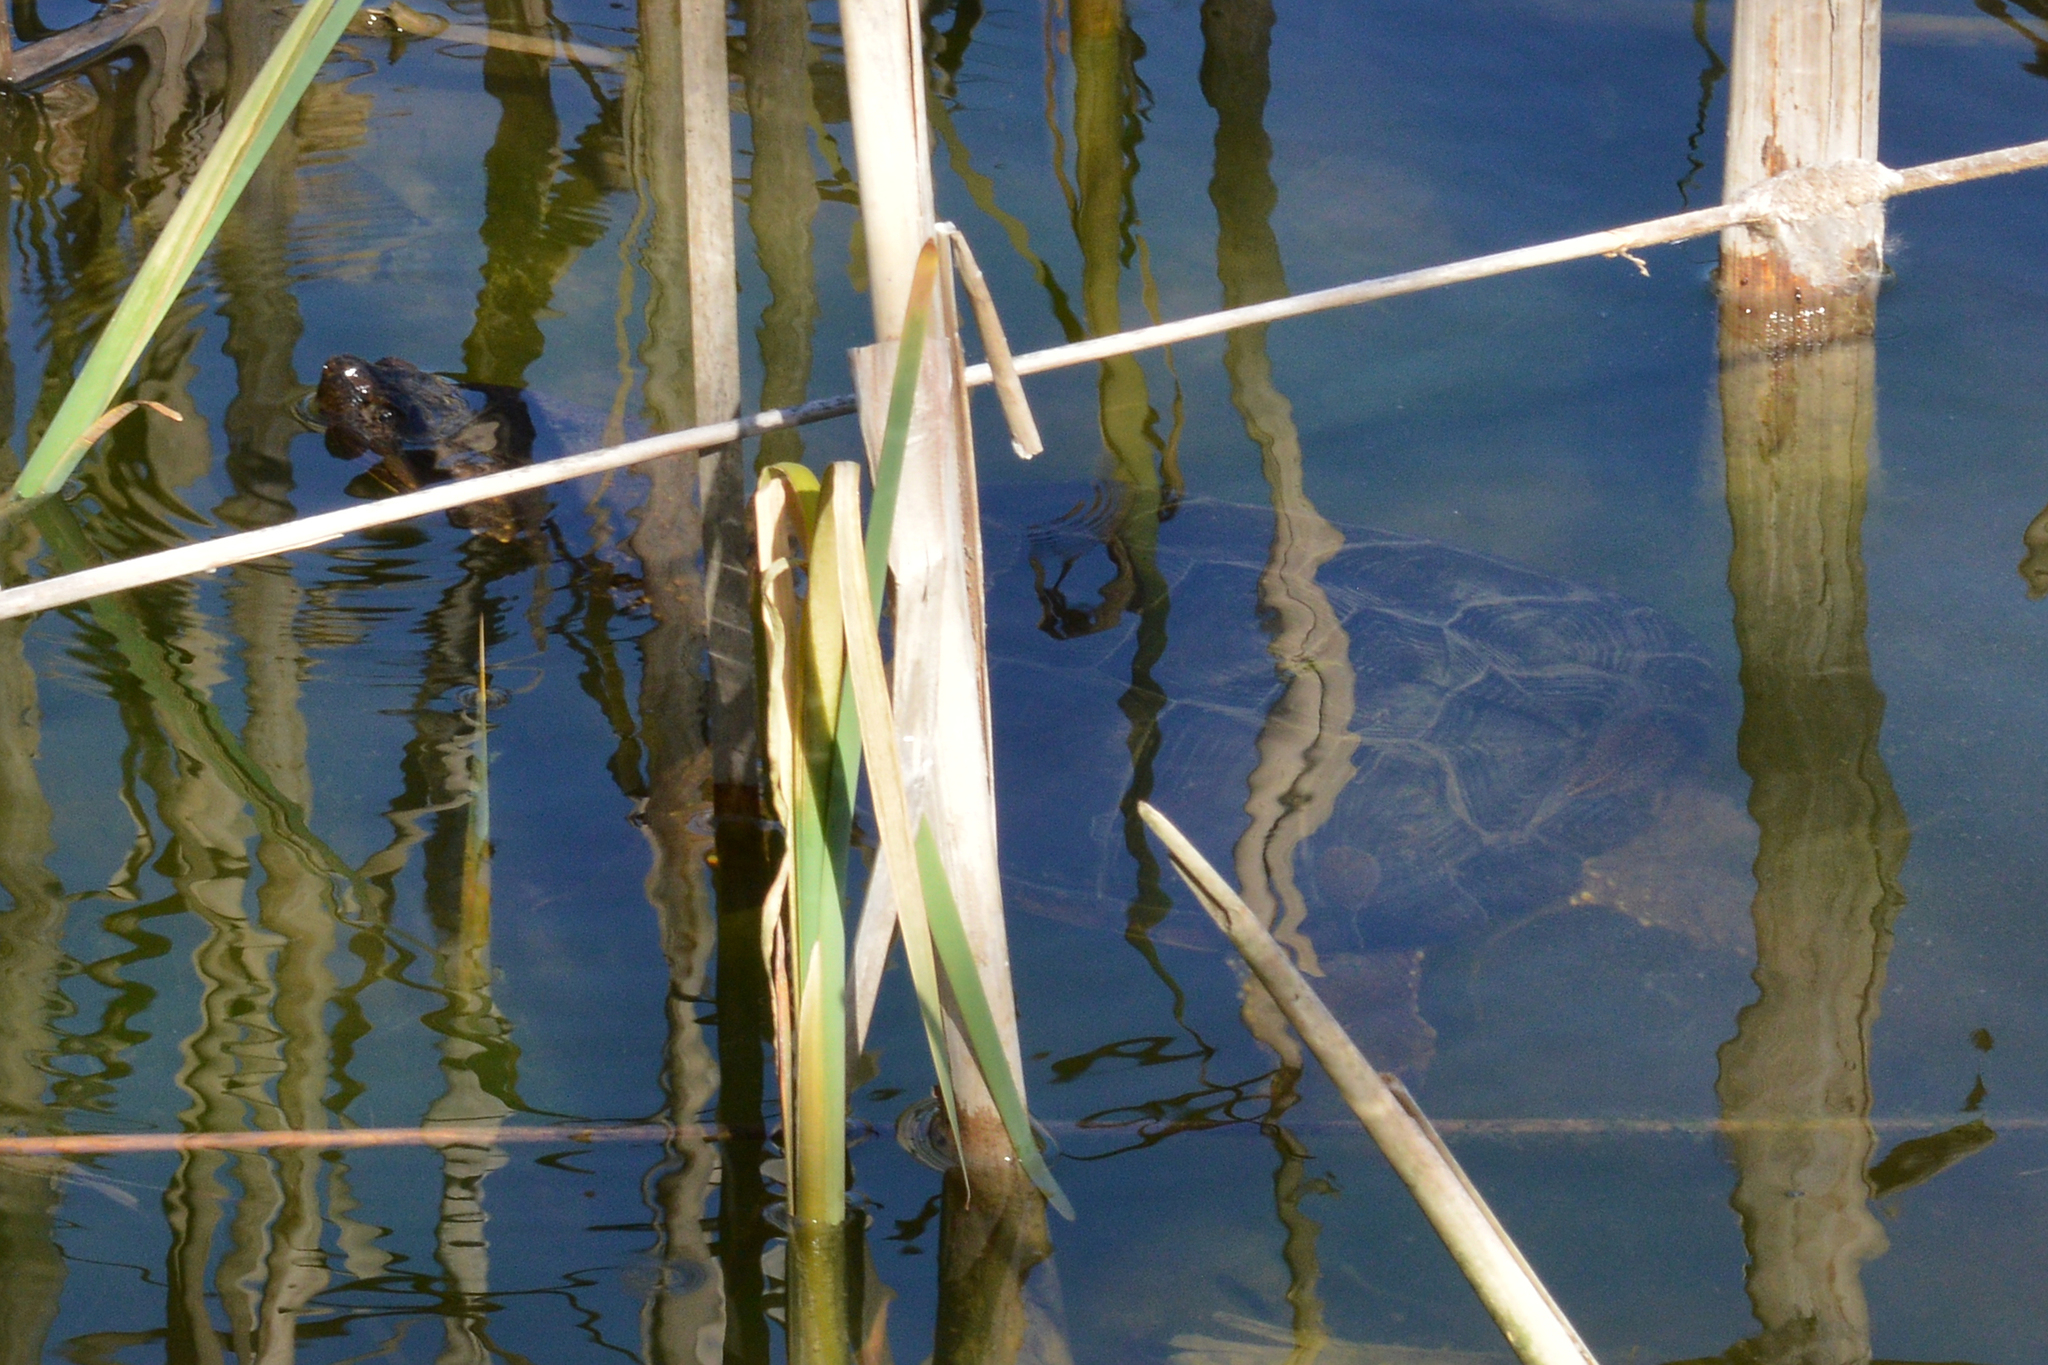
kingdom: Animalia
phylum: Chordata
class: Testudines
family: Chelydridae
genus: Chelydra
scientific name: Chelydra serpentina
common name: Common snapping turtle
